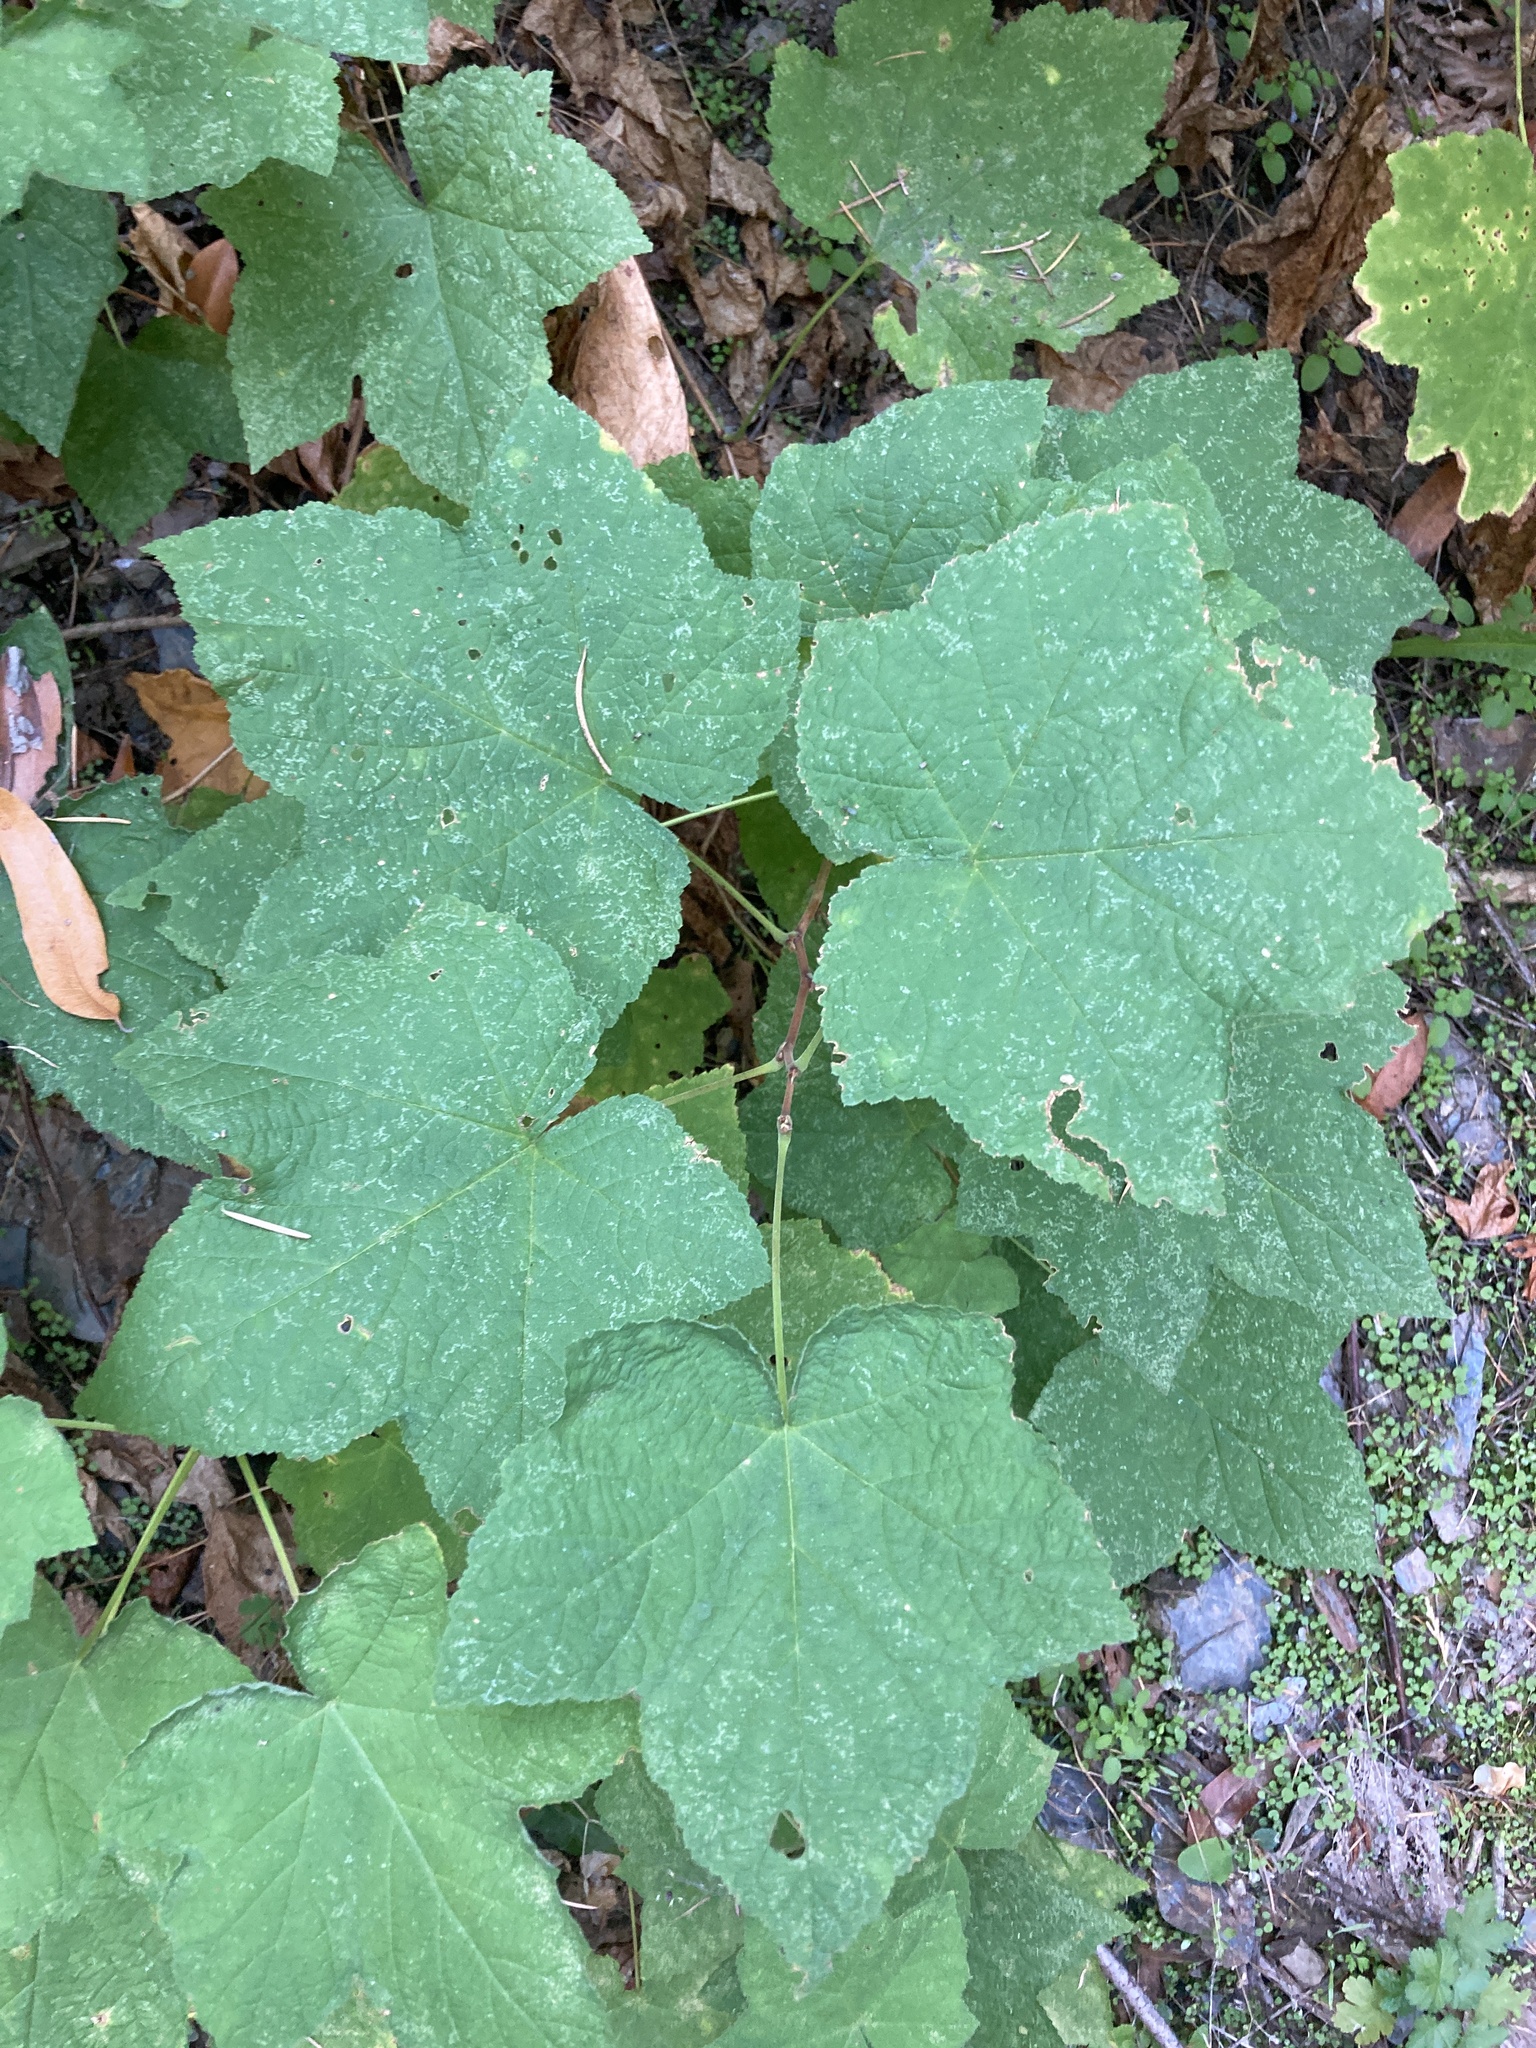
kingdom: Plantae
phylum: Tracheophyta
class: Magnoliopsida
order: Rosales
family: Rosaceae
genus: Rubus
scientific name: Rubus parviflorus
